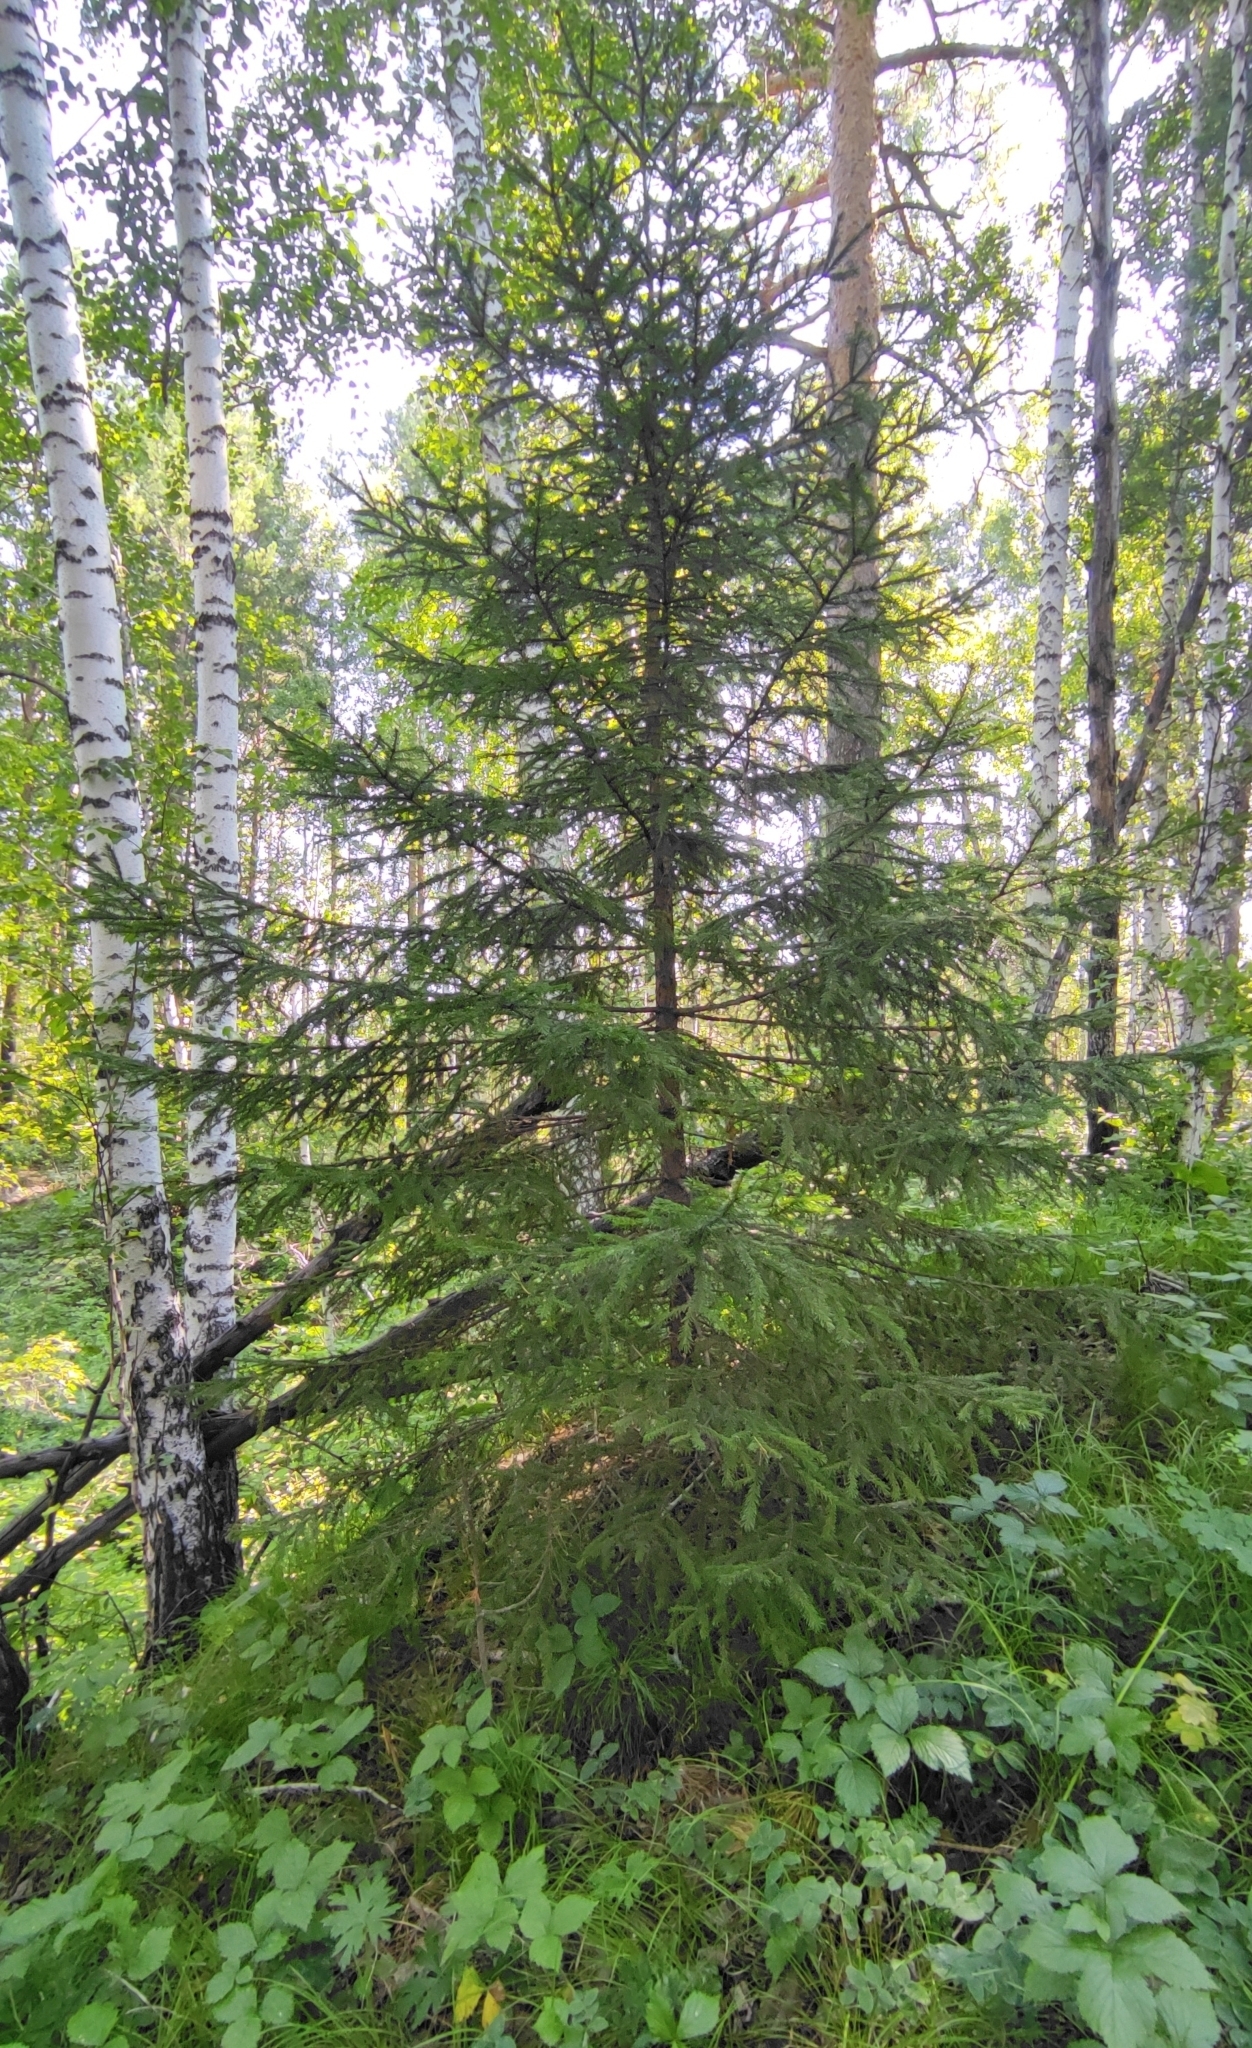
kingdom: Plantae
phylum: Tracheophyta
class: Pinopsida
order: Pinales
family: Pinaceae
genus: Picea
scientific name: Picea obovata
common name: Siberian spruce
